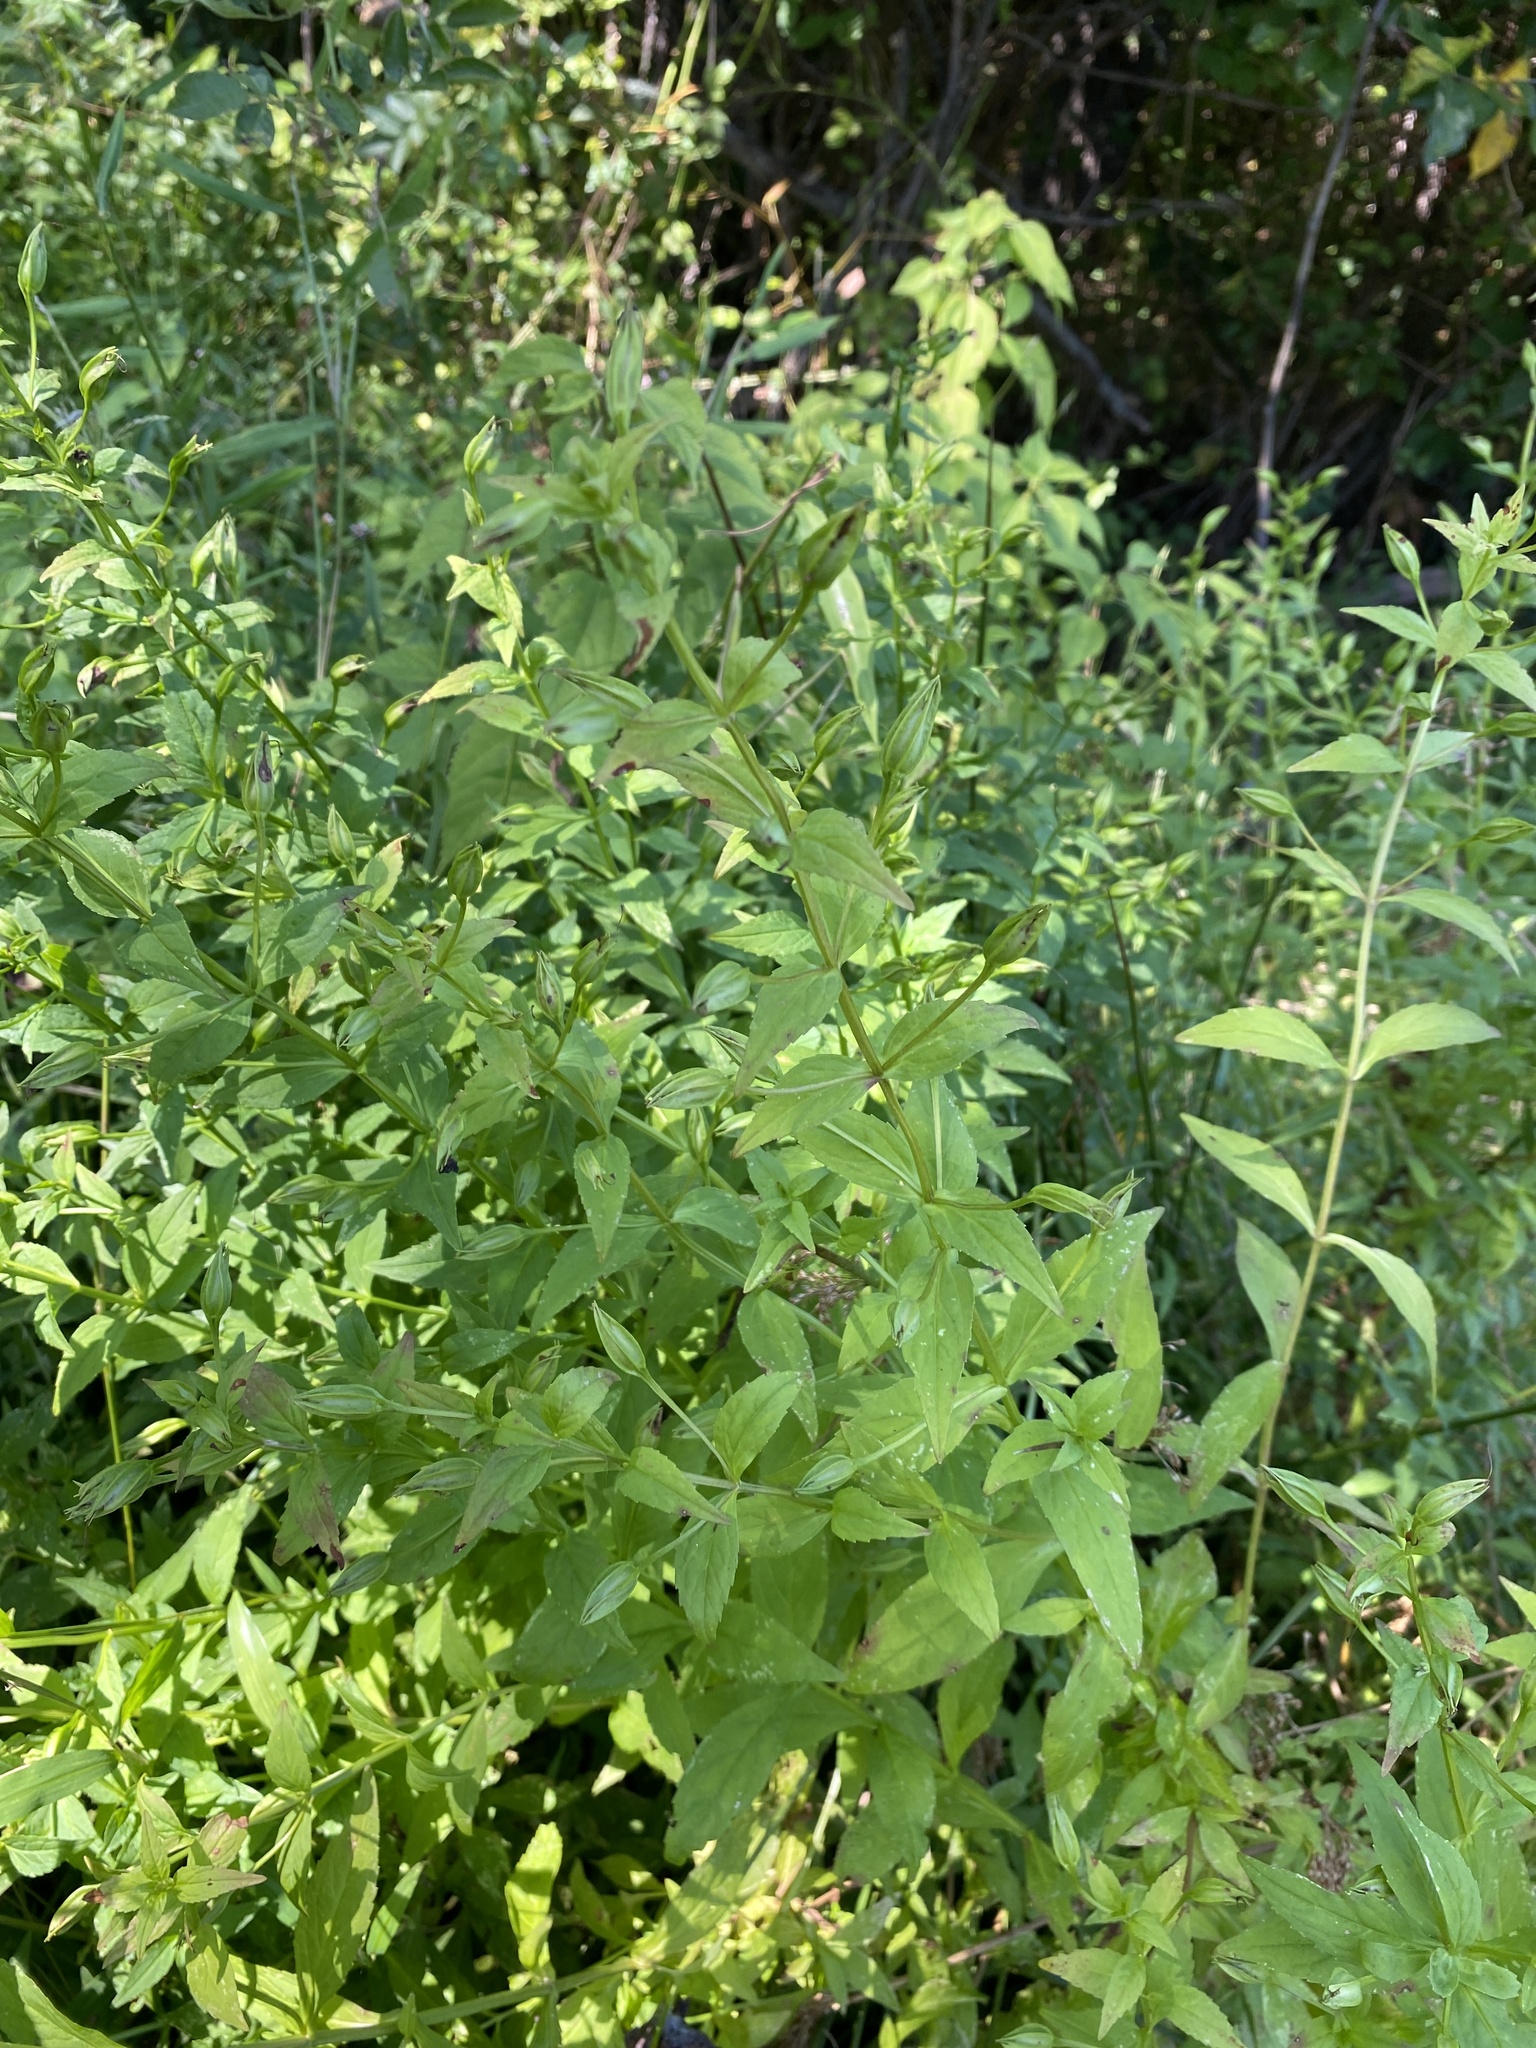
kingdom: Plantae
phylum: Tracheophyta
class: Magnoliopsida
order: Lamiales
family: Phrymaceae
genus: Mimulus
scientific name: Mimulus ringens
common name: Allegheny monkeyflower
